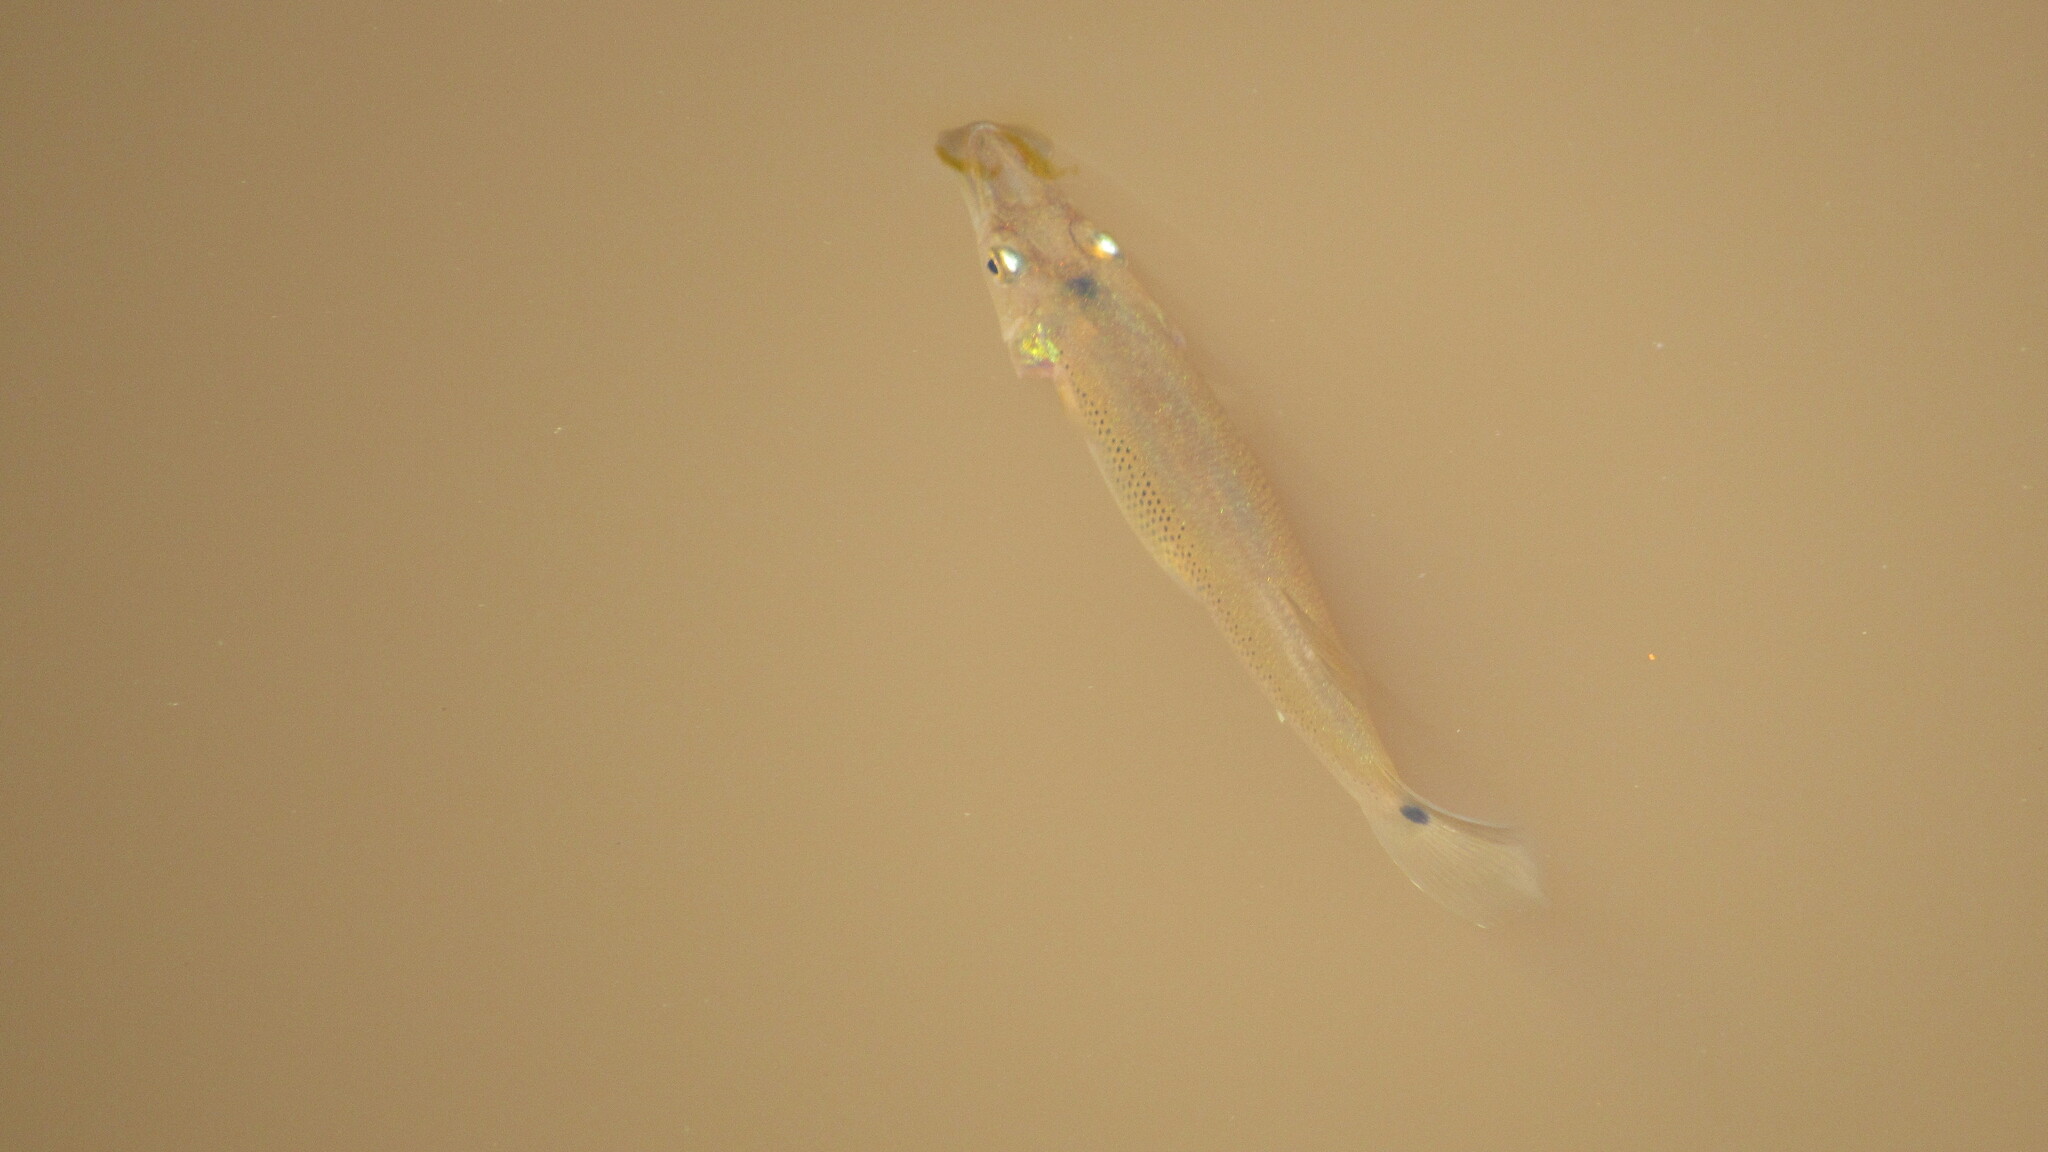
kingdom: Animalia
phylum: Chordata
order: Cyprinodontiformes
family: Poeciliidae
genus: Belonesox
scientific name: Belonesox belizanus
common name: Pike killifish
